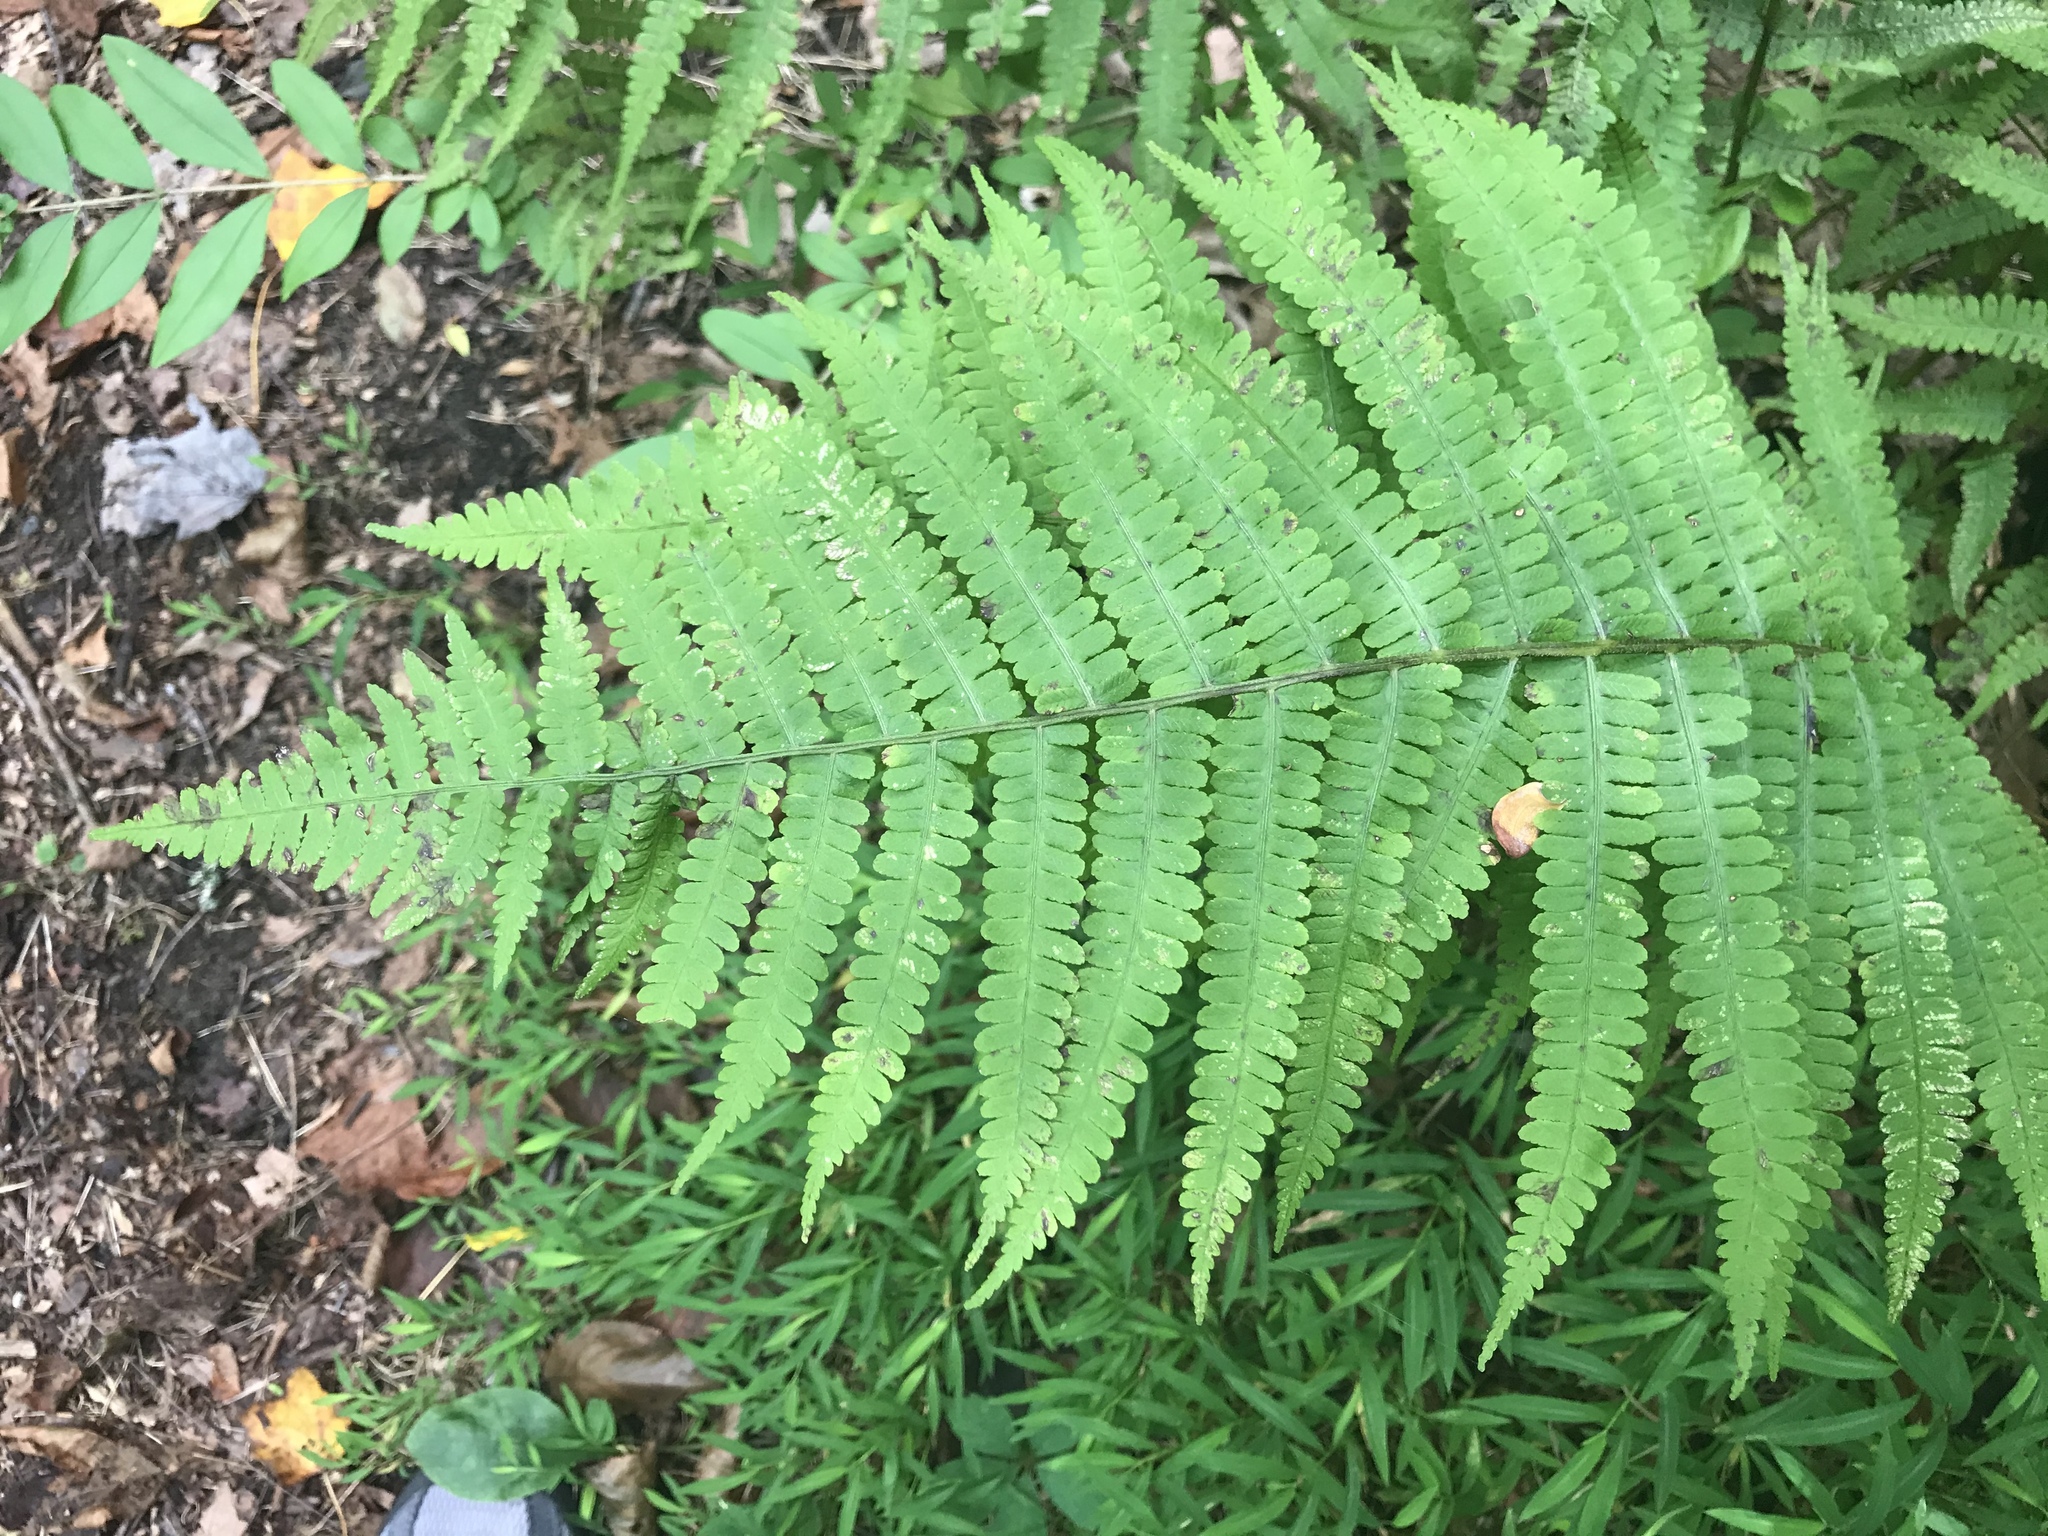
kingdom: Plantae
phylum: Tracheophyta
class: Polypodiopsida
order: Polypodiales
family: Athyriaceae
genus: Deparia
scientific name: Deparia acrostichoides
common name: Silver false spleenwort
